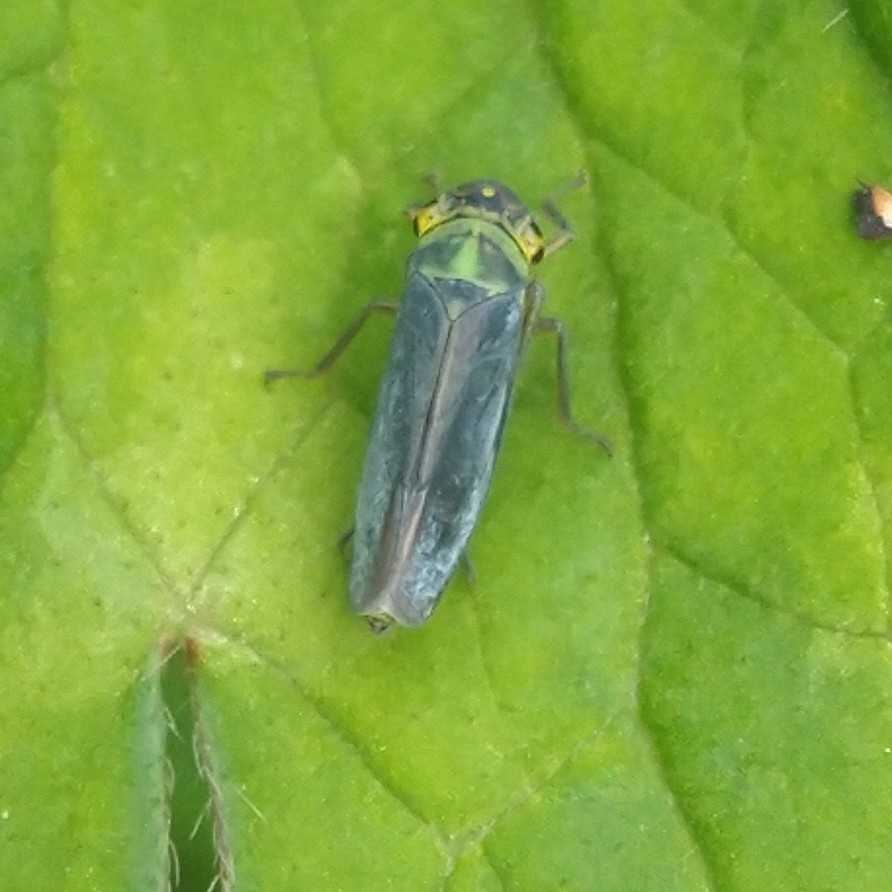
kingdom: Animalia
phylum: Arthropoda
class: Insecta
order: Hemiptera
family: Cicadellidae
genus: Cicadella
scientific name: Cicadella viridis
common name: Leafhopper
